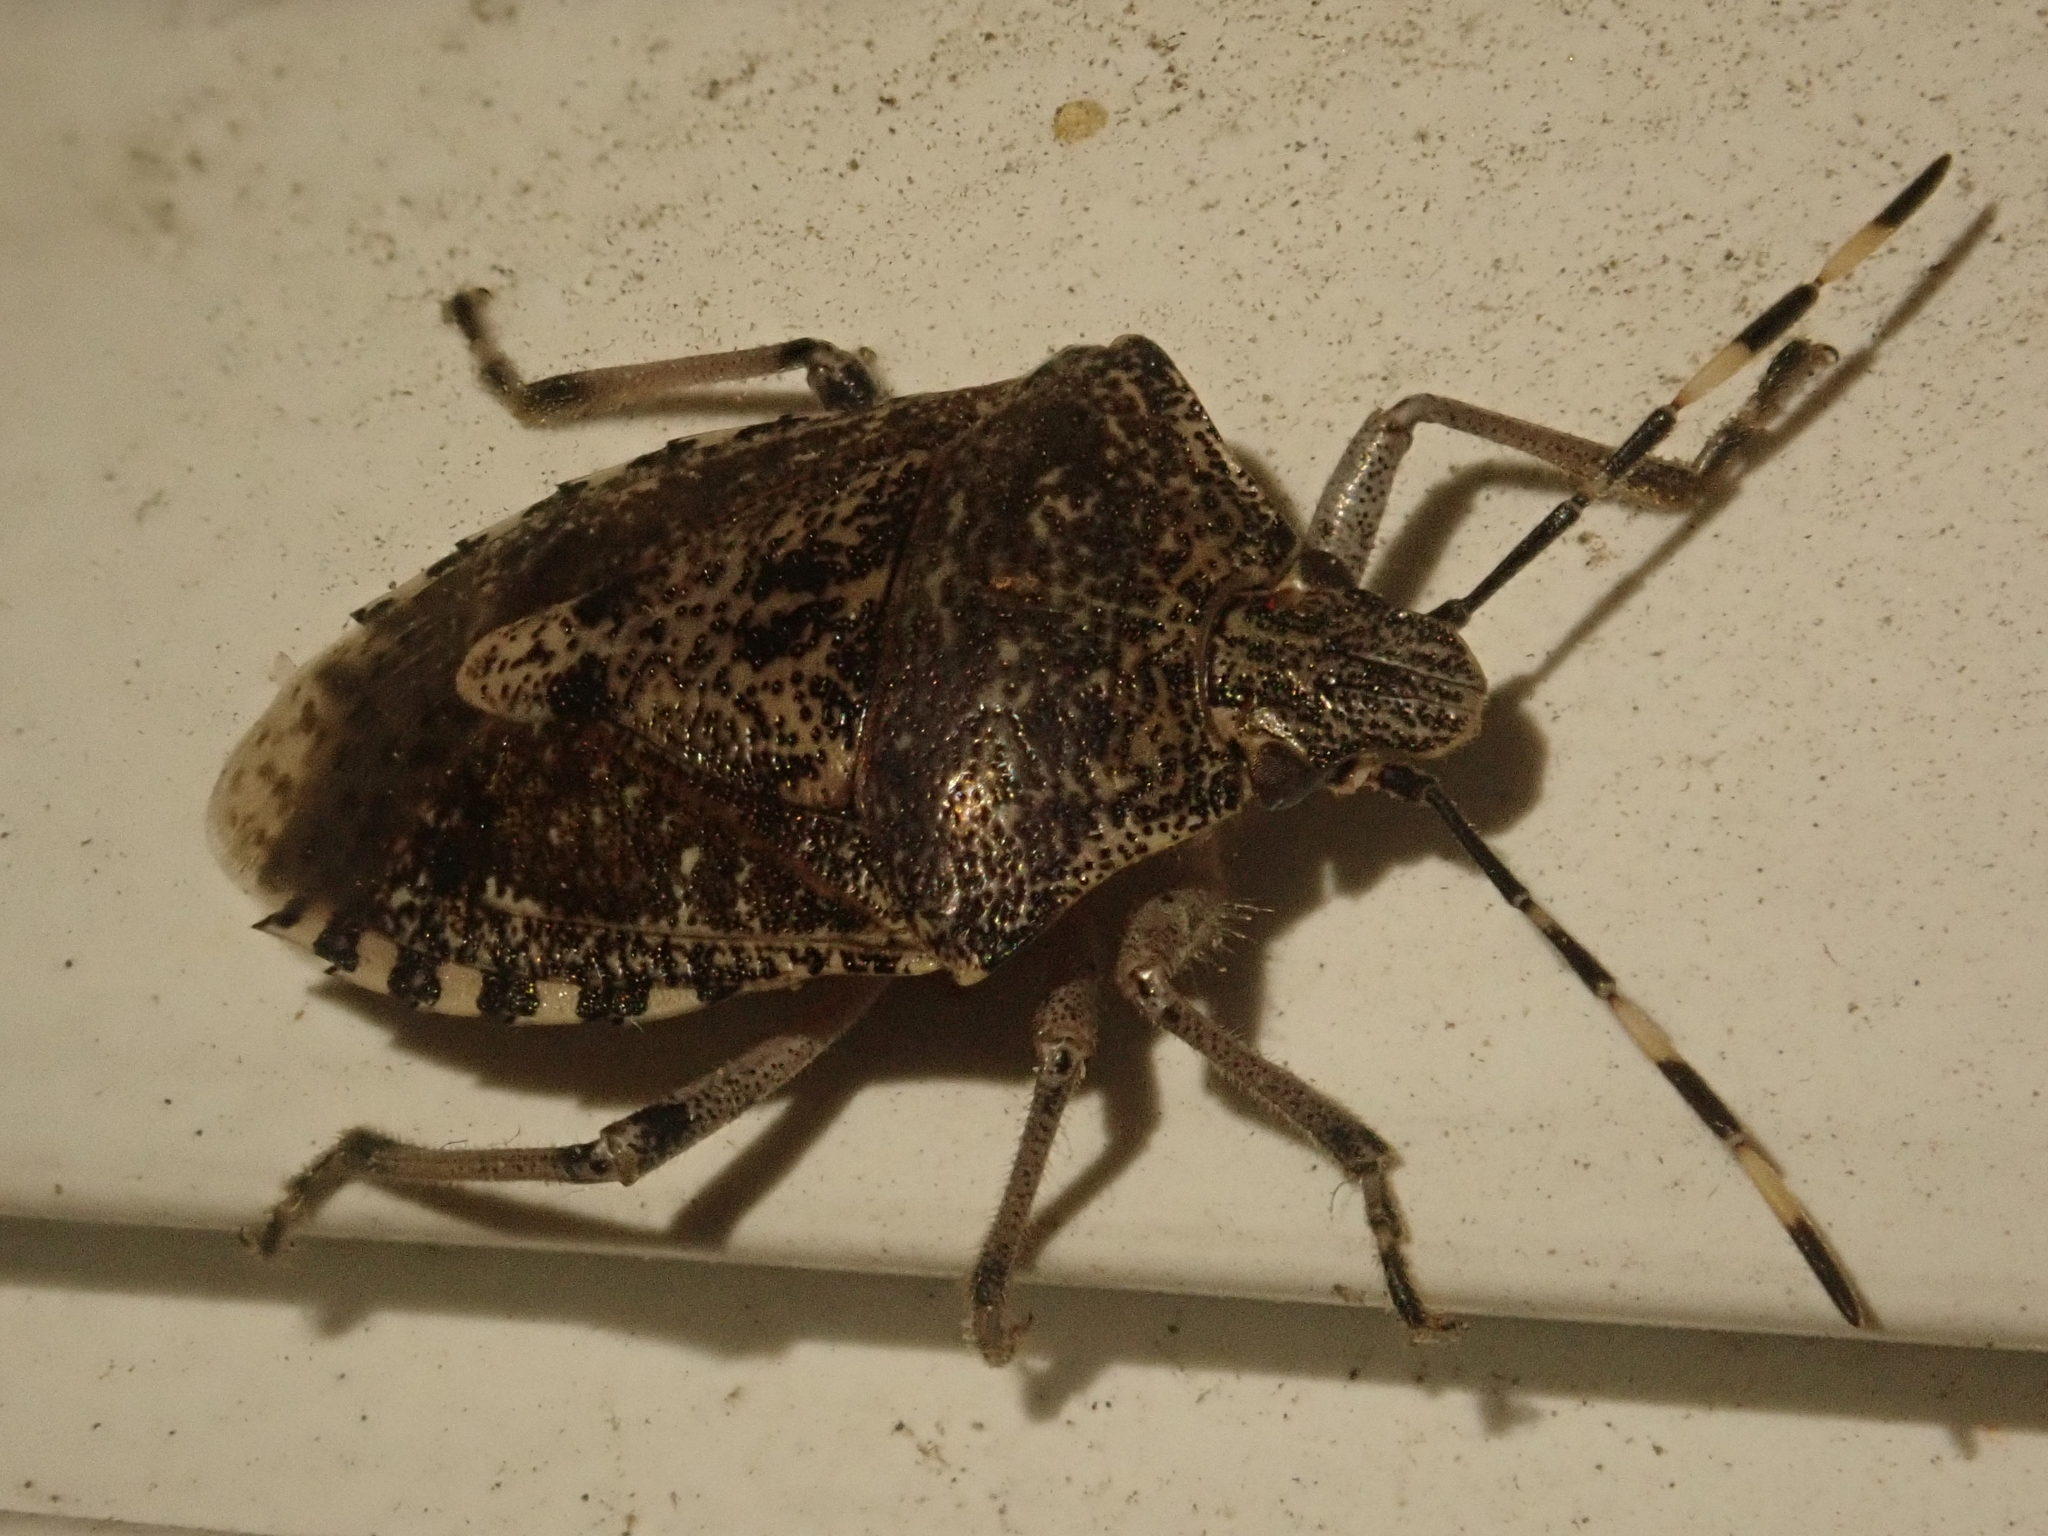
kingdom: Animalia
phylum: Arthropoda
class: Insecta
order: Hemiptera
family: Pentatomidae
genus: Rhaphigaster
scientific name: Rhaphigaster nebulosa
